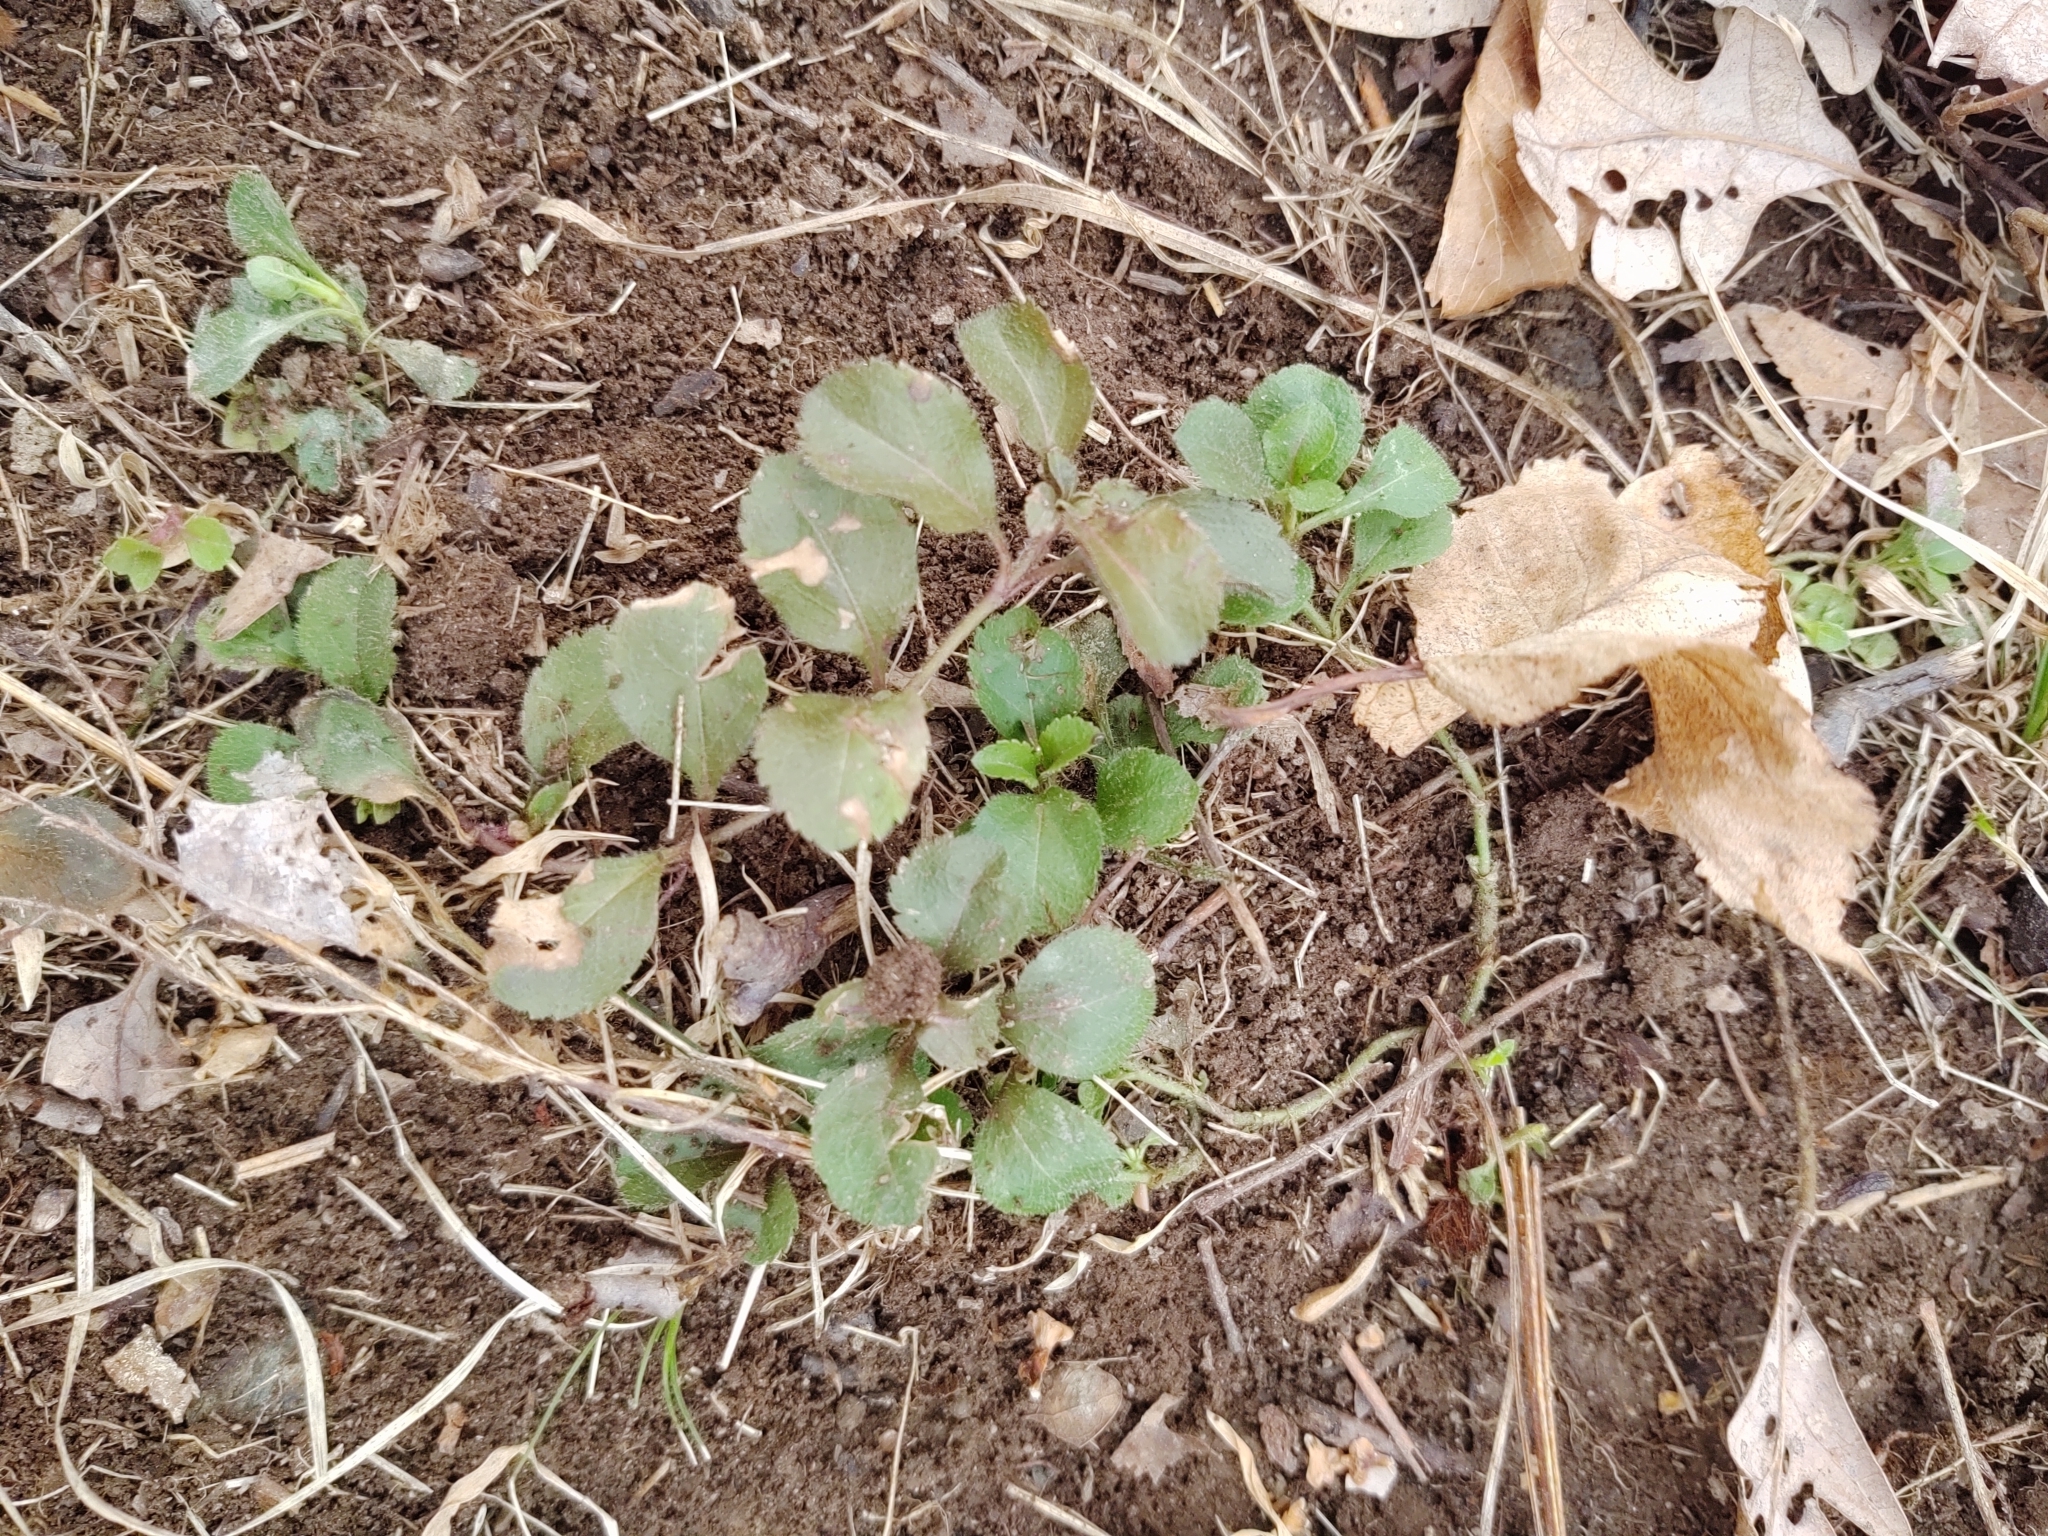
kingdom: Plantae
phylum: Tracheophyta
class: Magnoliopsida
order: Lamiales
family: Plantaginaceae
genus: Veronica
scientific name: Veronica officinalis
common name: Common speedwell
